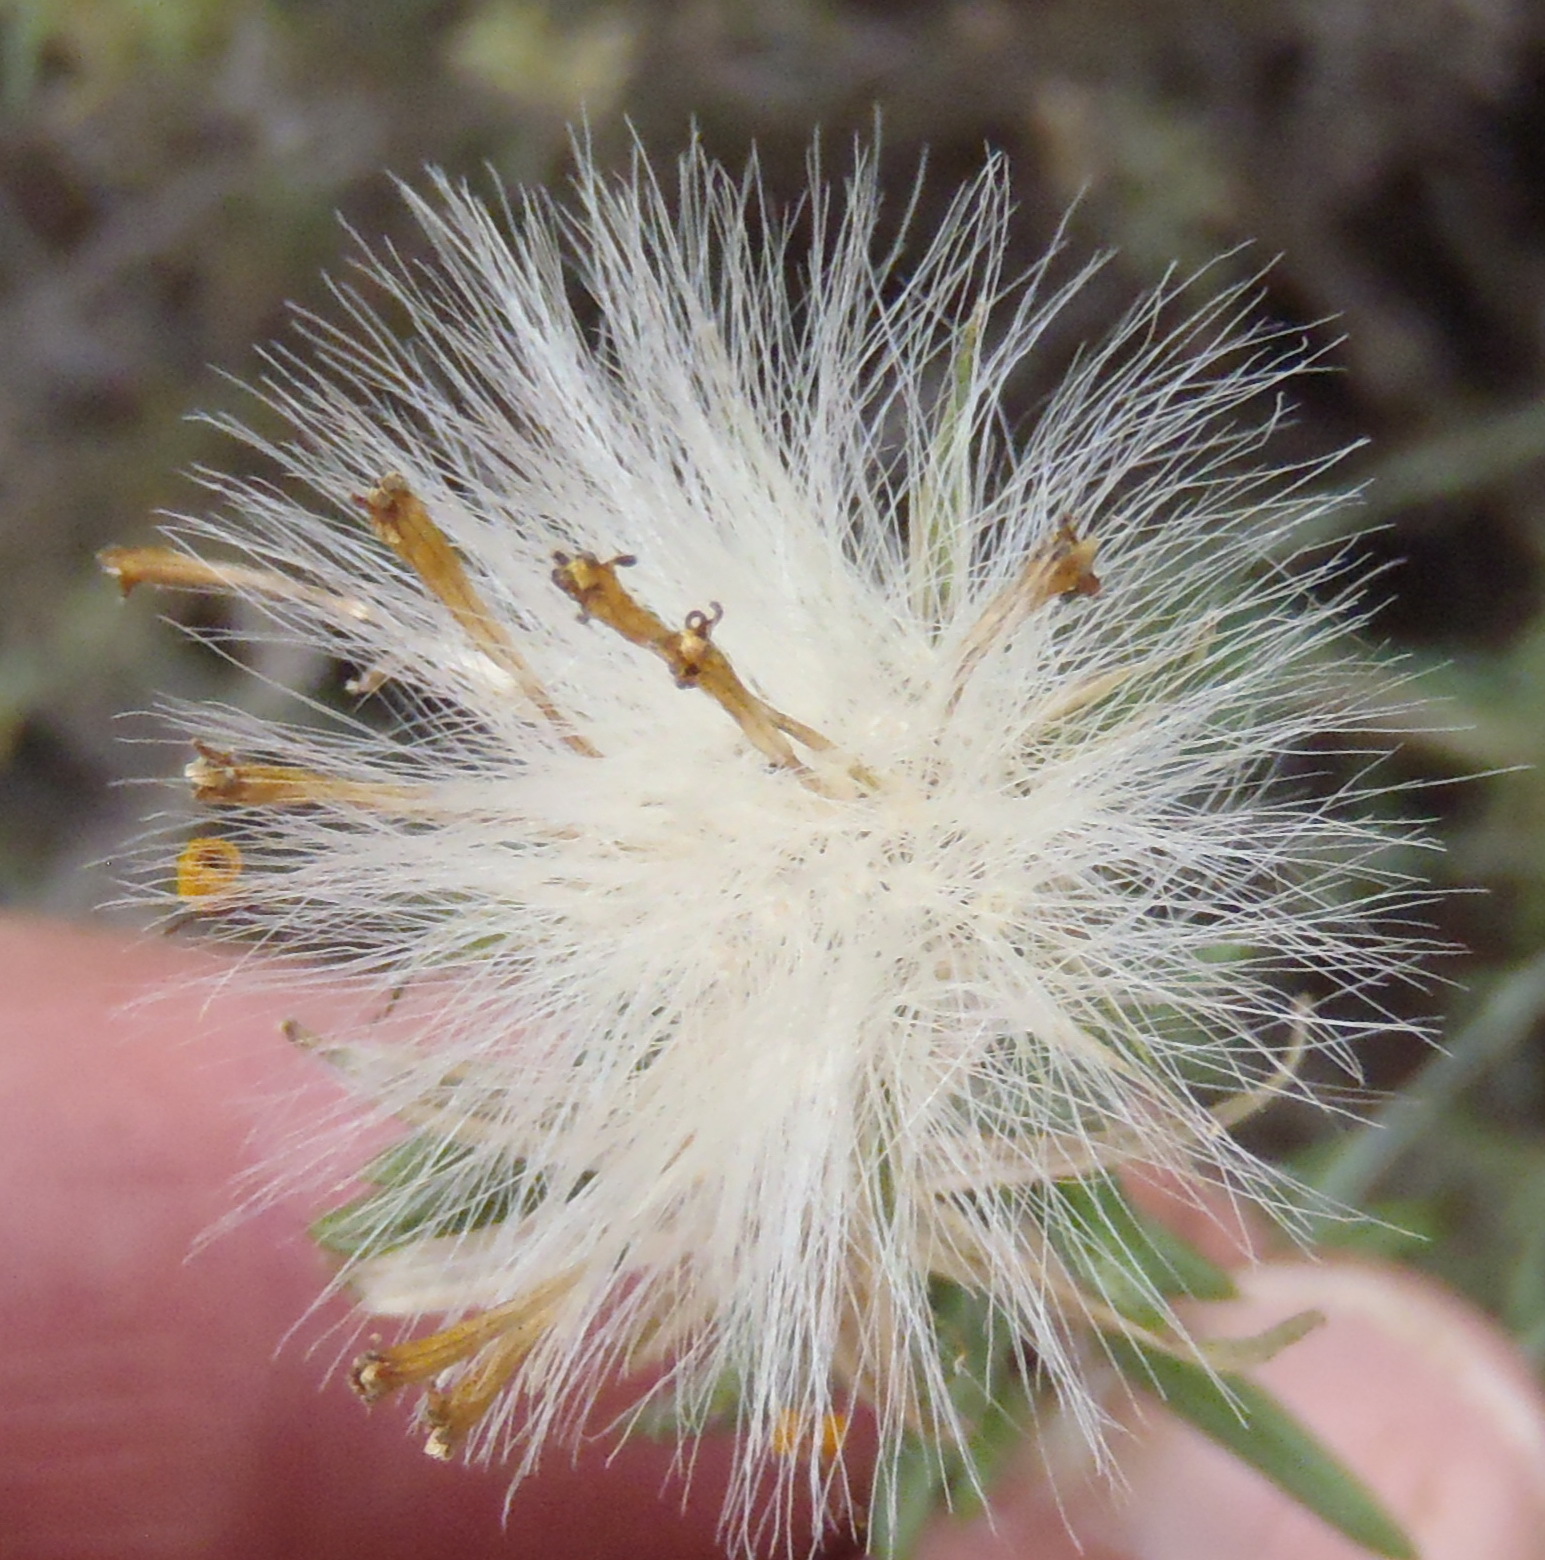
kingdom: Plantae
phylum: Tracheophyta
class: Magnoliopsida
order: Asterales
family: Asteraceae
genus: Senecio
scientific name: Senecio acutifolius
